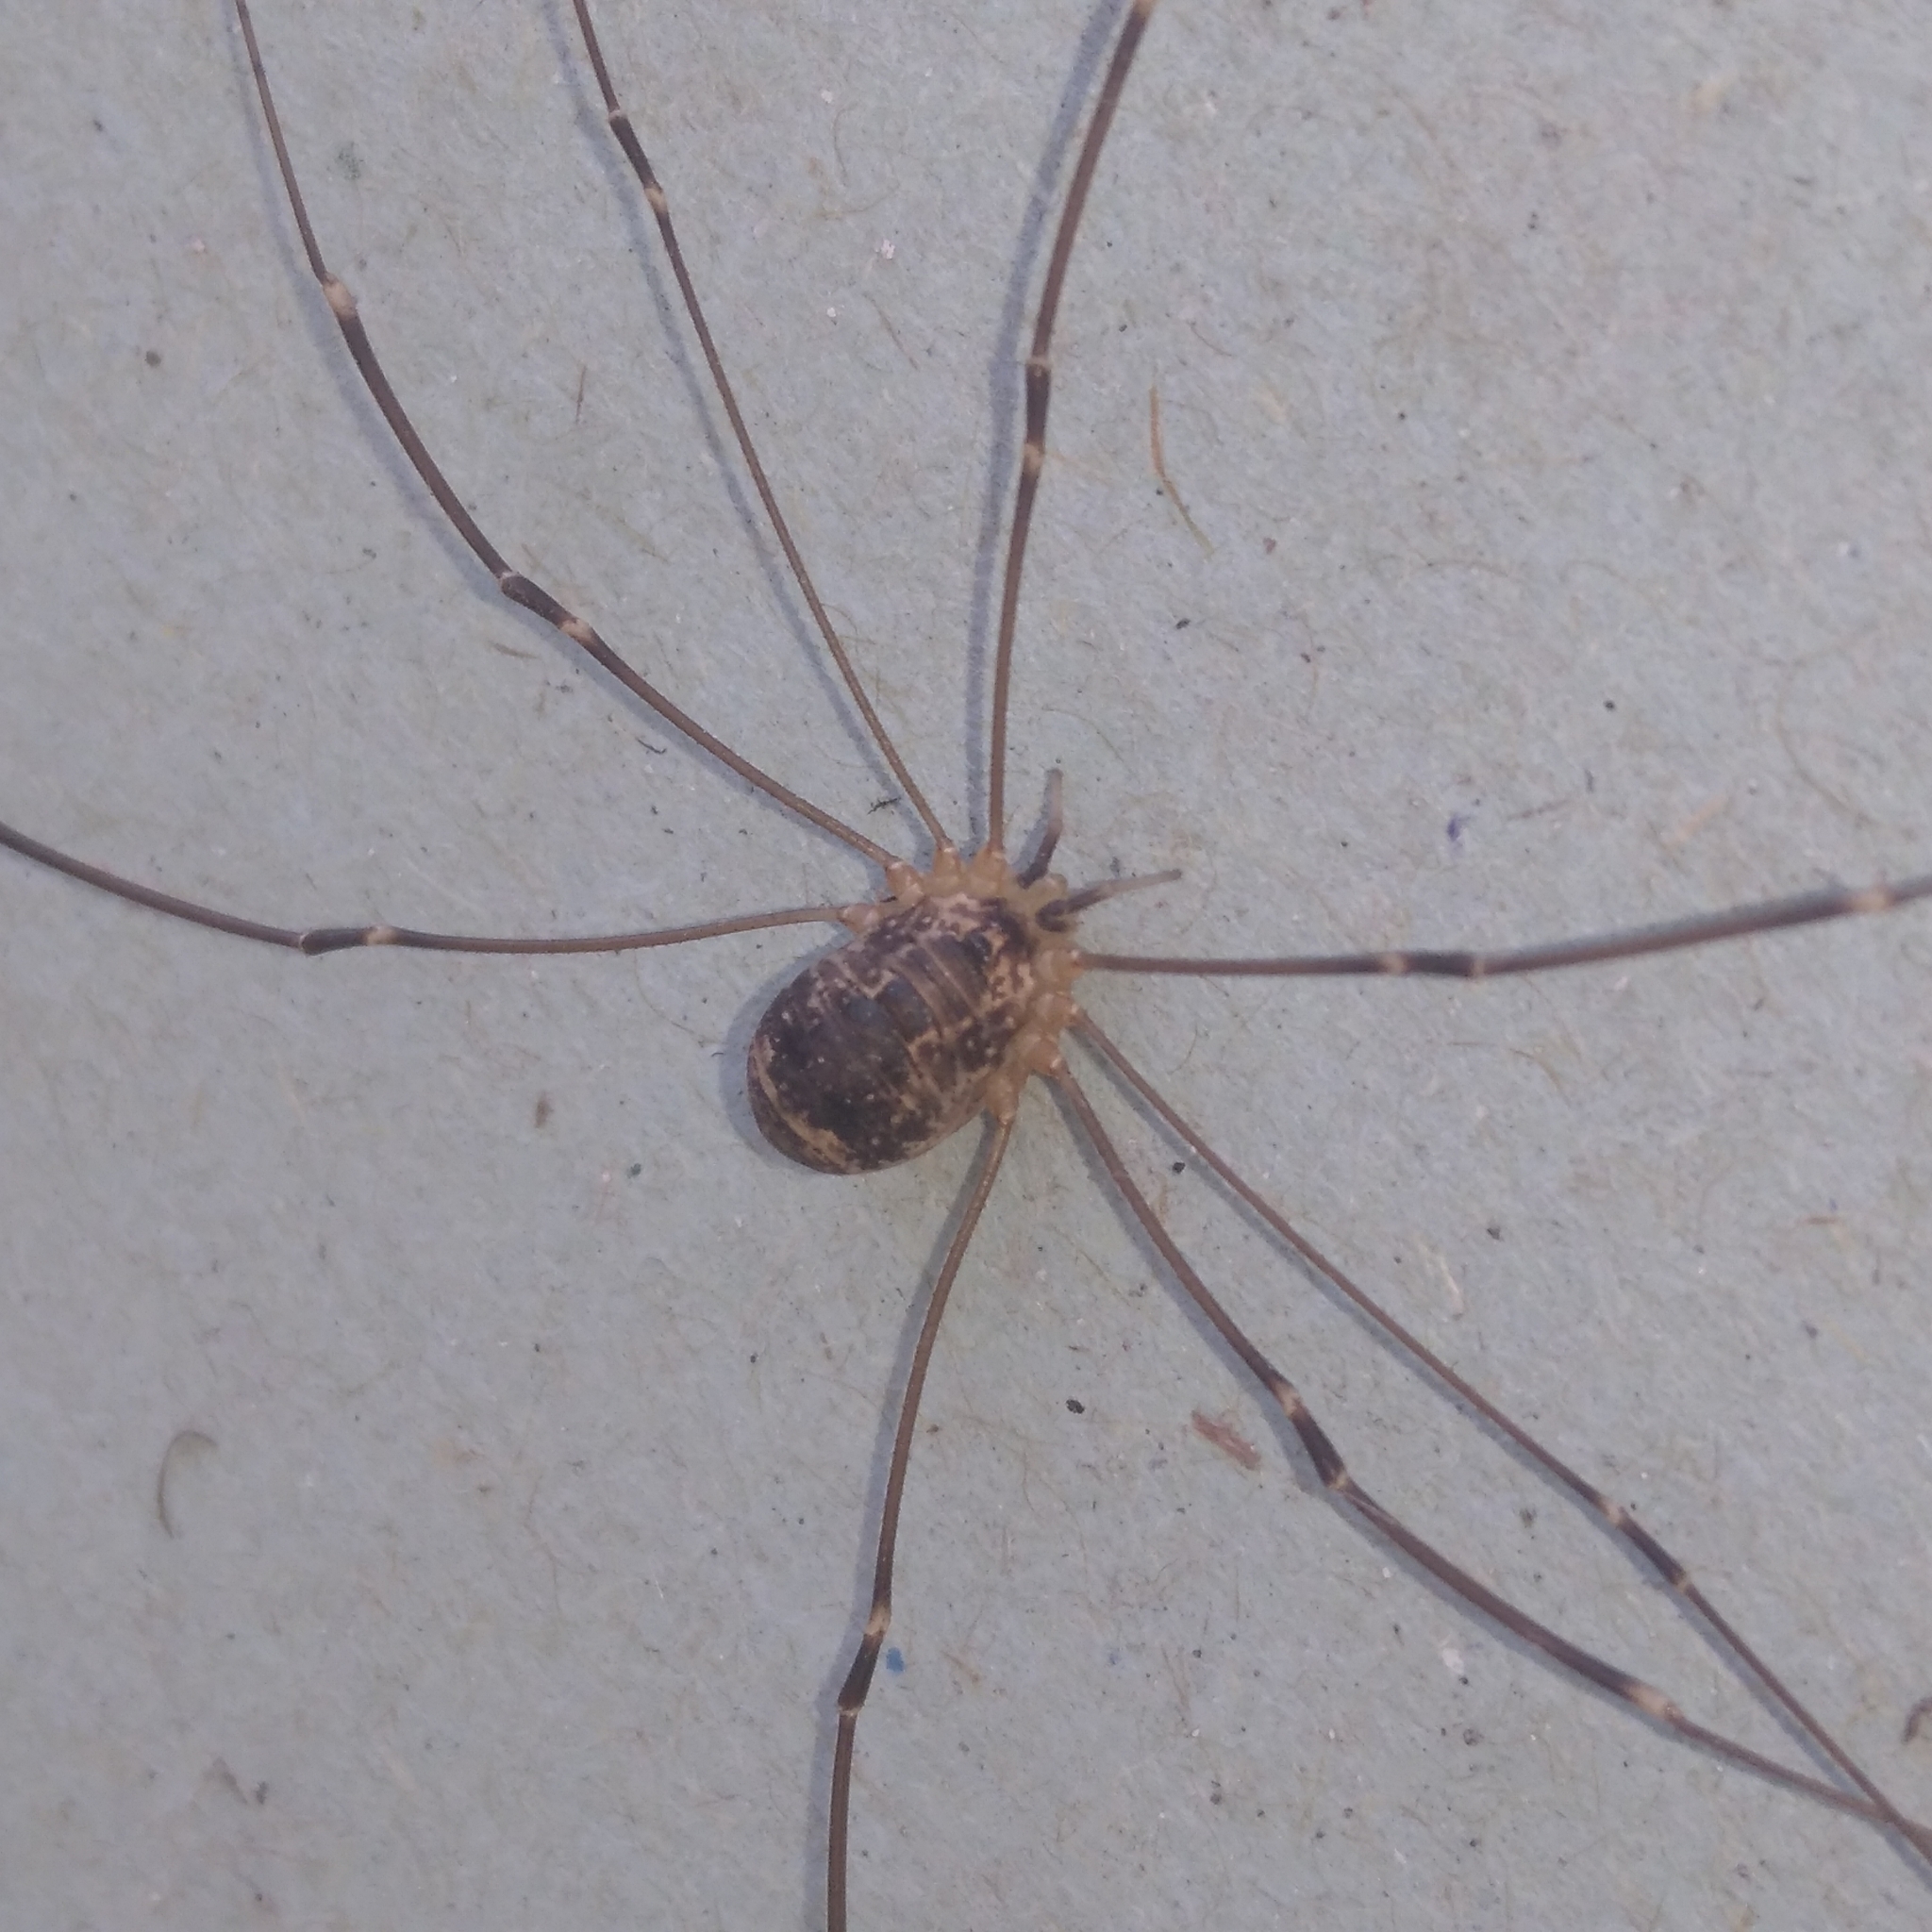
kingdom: Animalia
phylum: Arthropoda
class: Arachnida
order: Opiliones
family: Sclerosomatidae
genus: Leiobunum
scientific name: Leiobunum gracile
